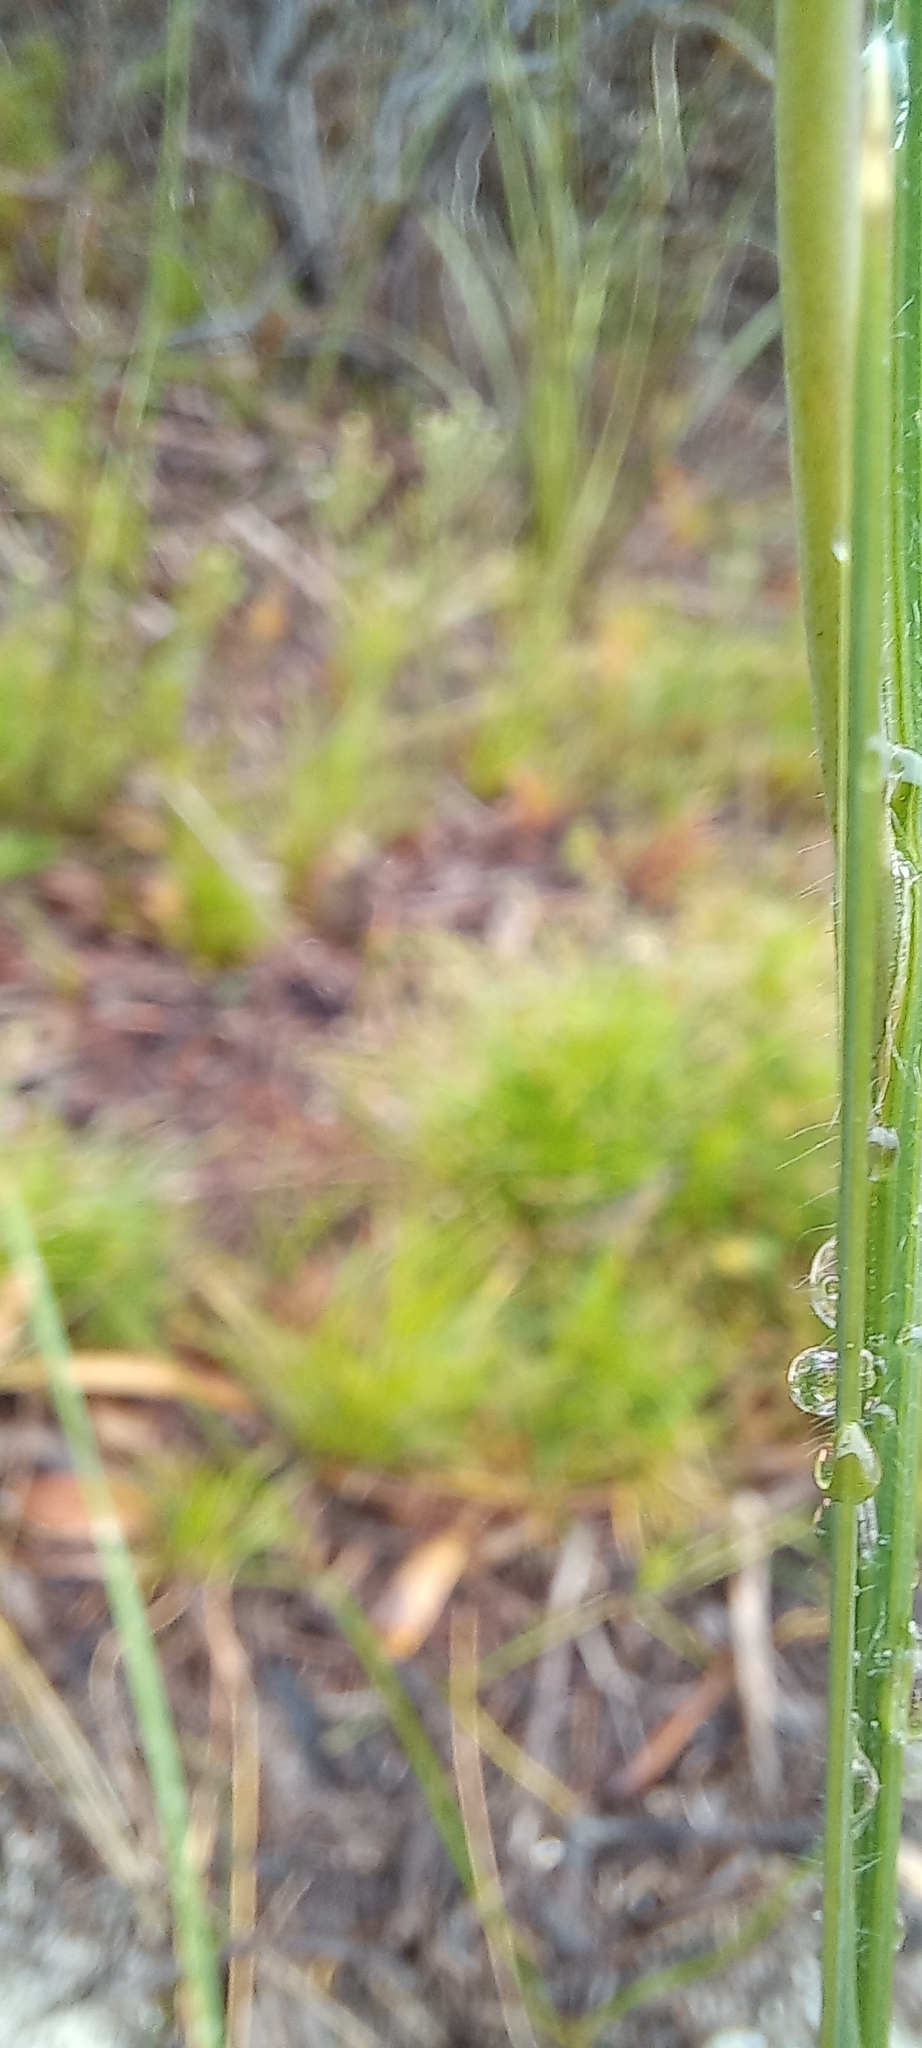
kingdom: Plantae
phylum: Tracheophyta
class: Liliopsida
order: Asparagales
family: Iridaceae
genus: Gladiolus
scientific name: Gladiolus hirsutus
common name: Small pink afrikaner
